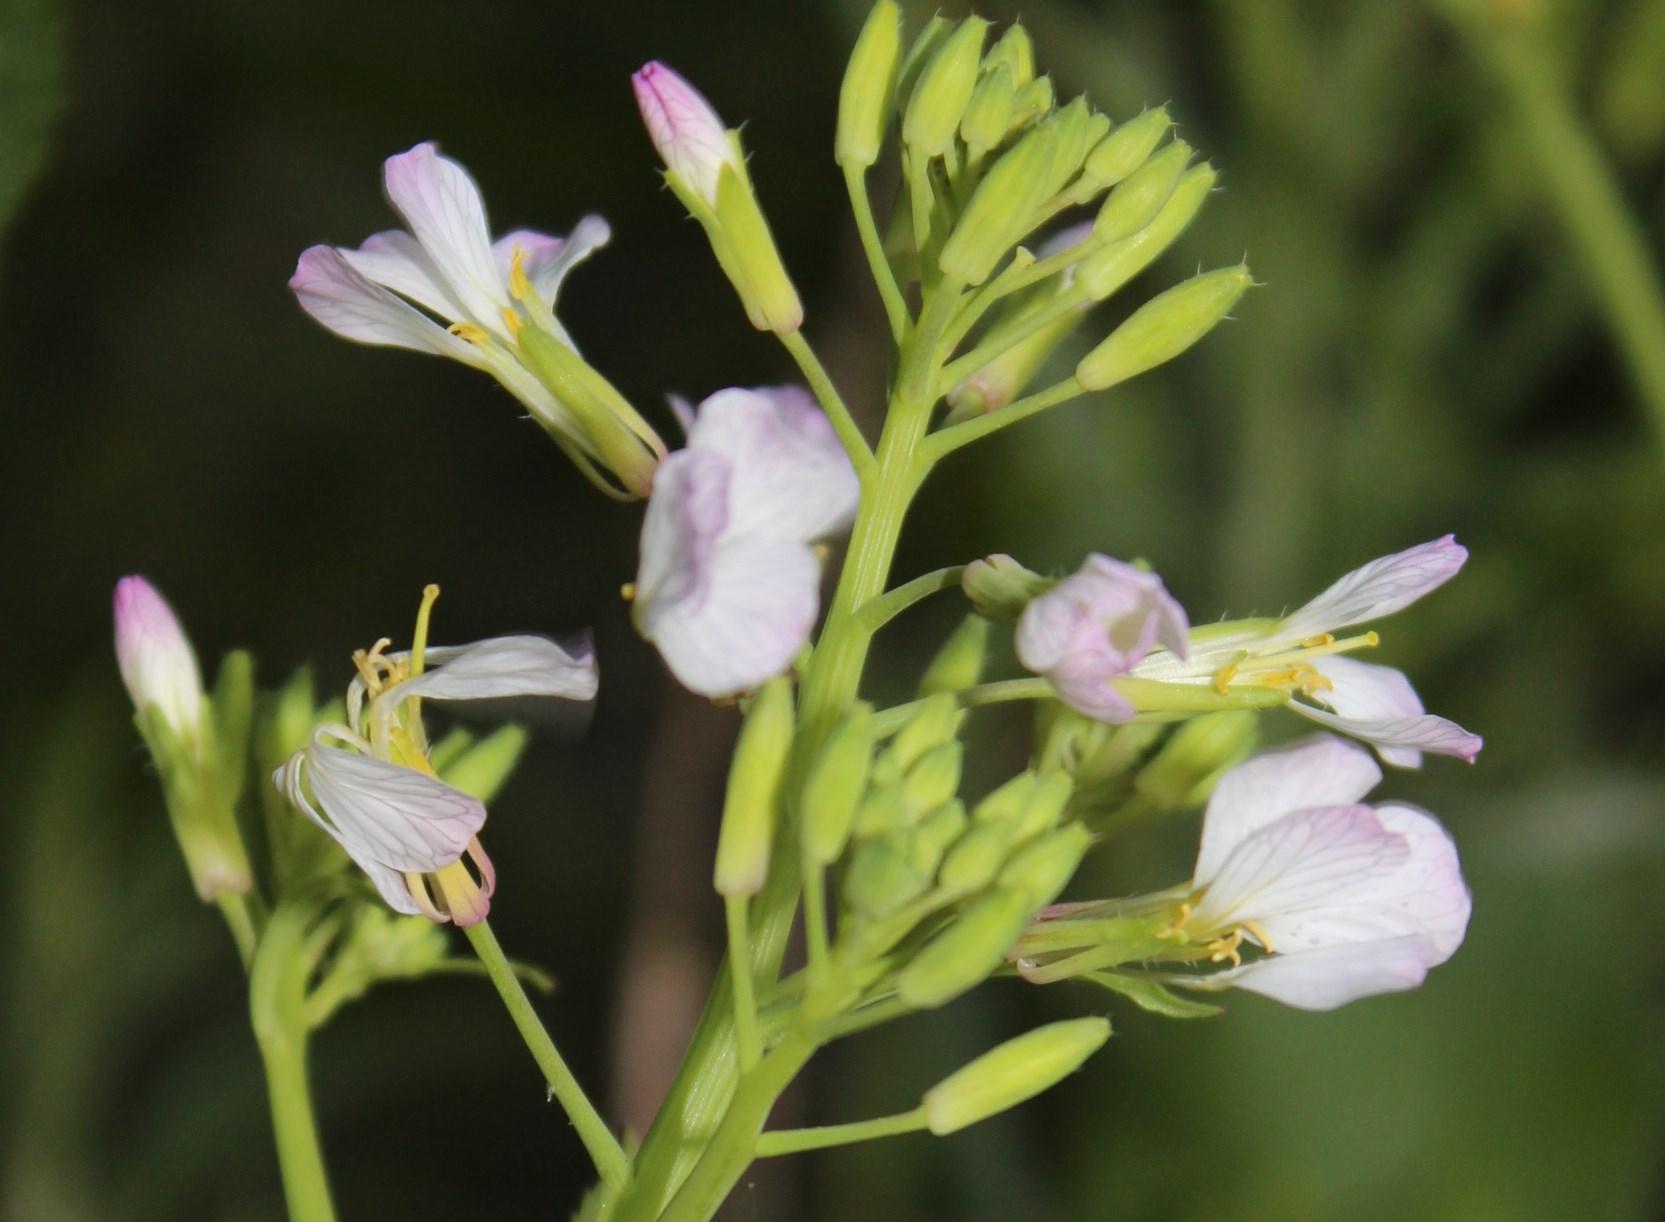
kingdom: Plantae
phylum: Tracheophyta
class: Magnoliopsida
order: Brassicales
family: Brassicaceae
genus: Raphanus
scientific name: Raphanus sativus
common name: Cultivated radish
